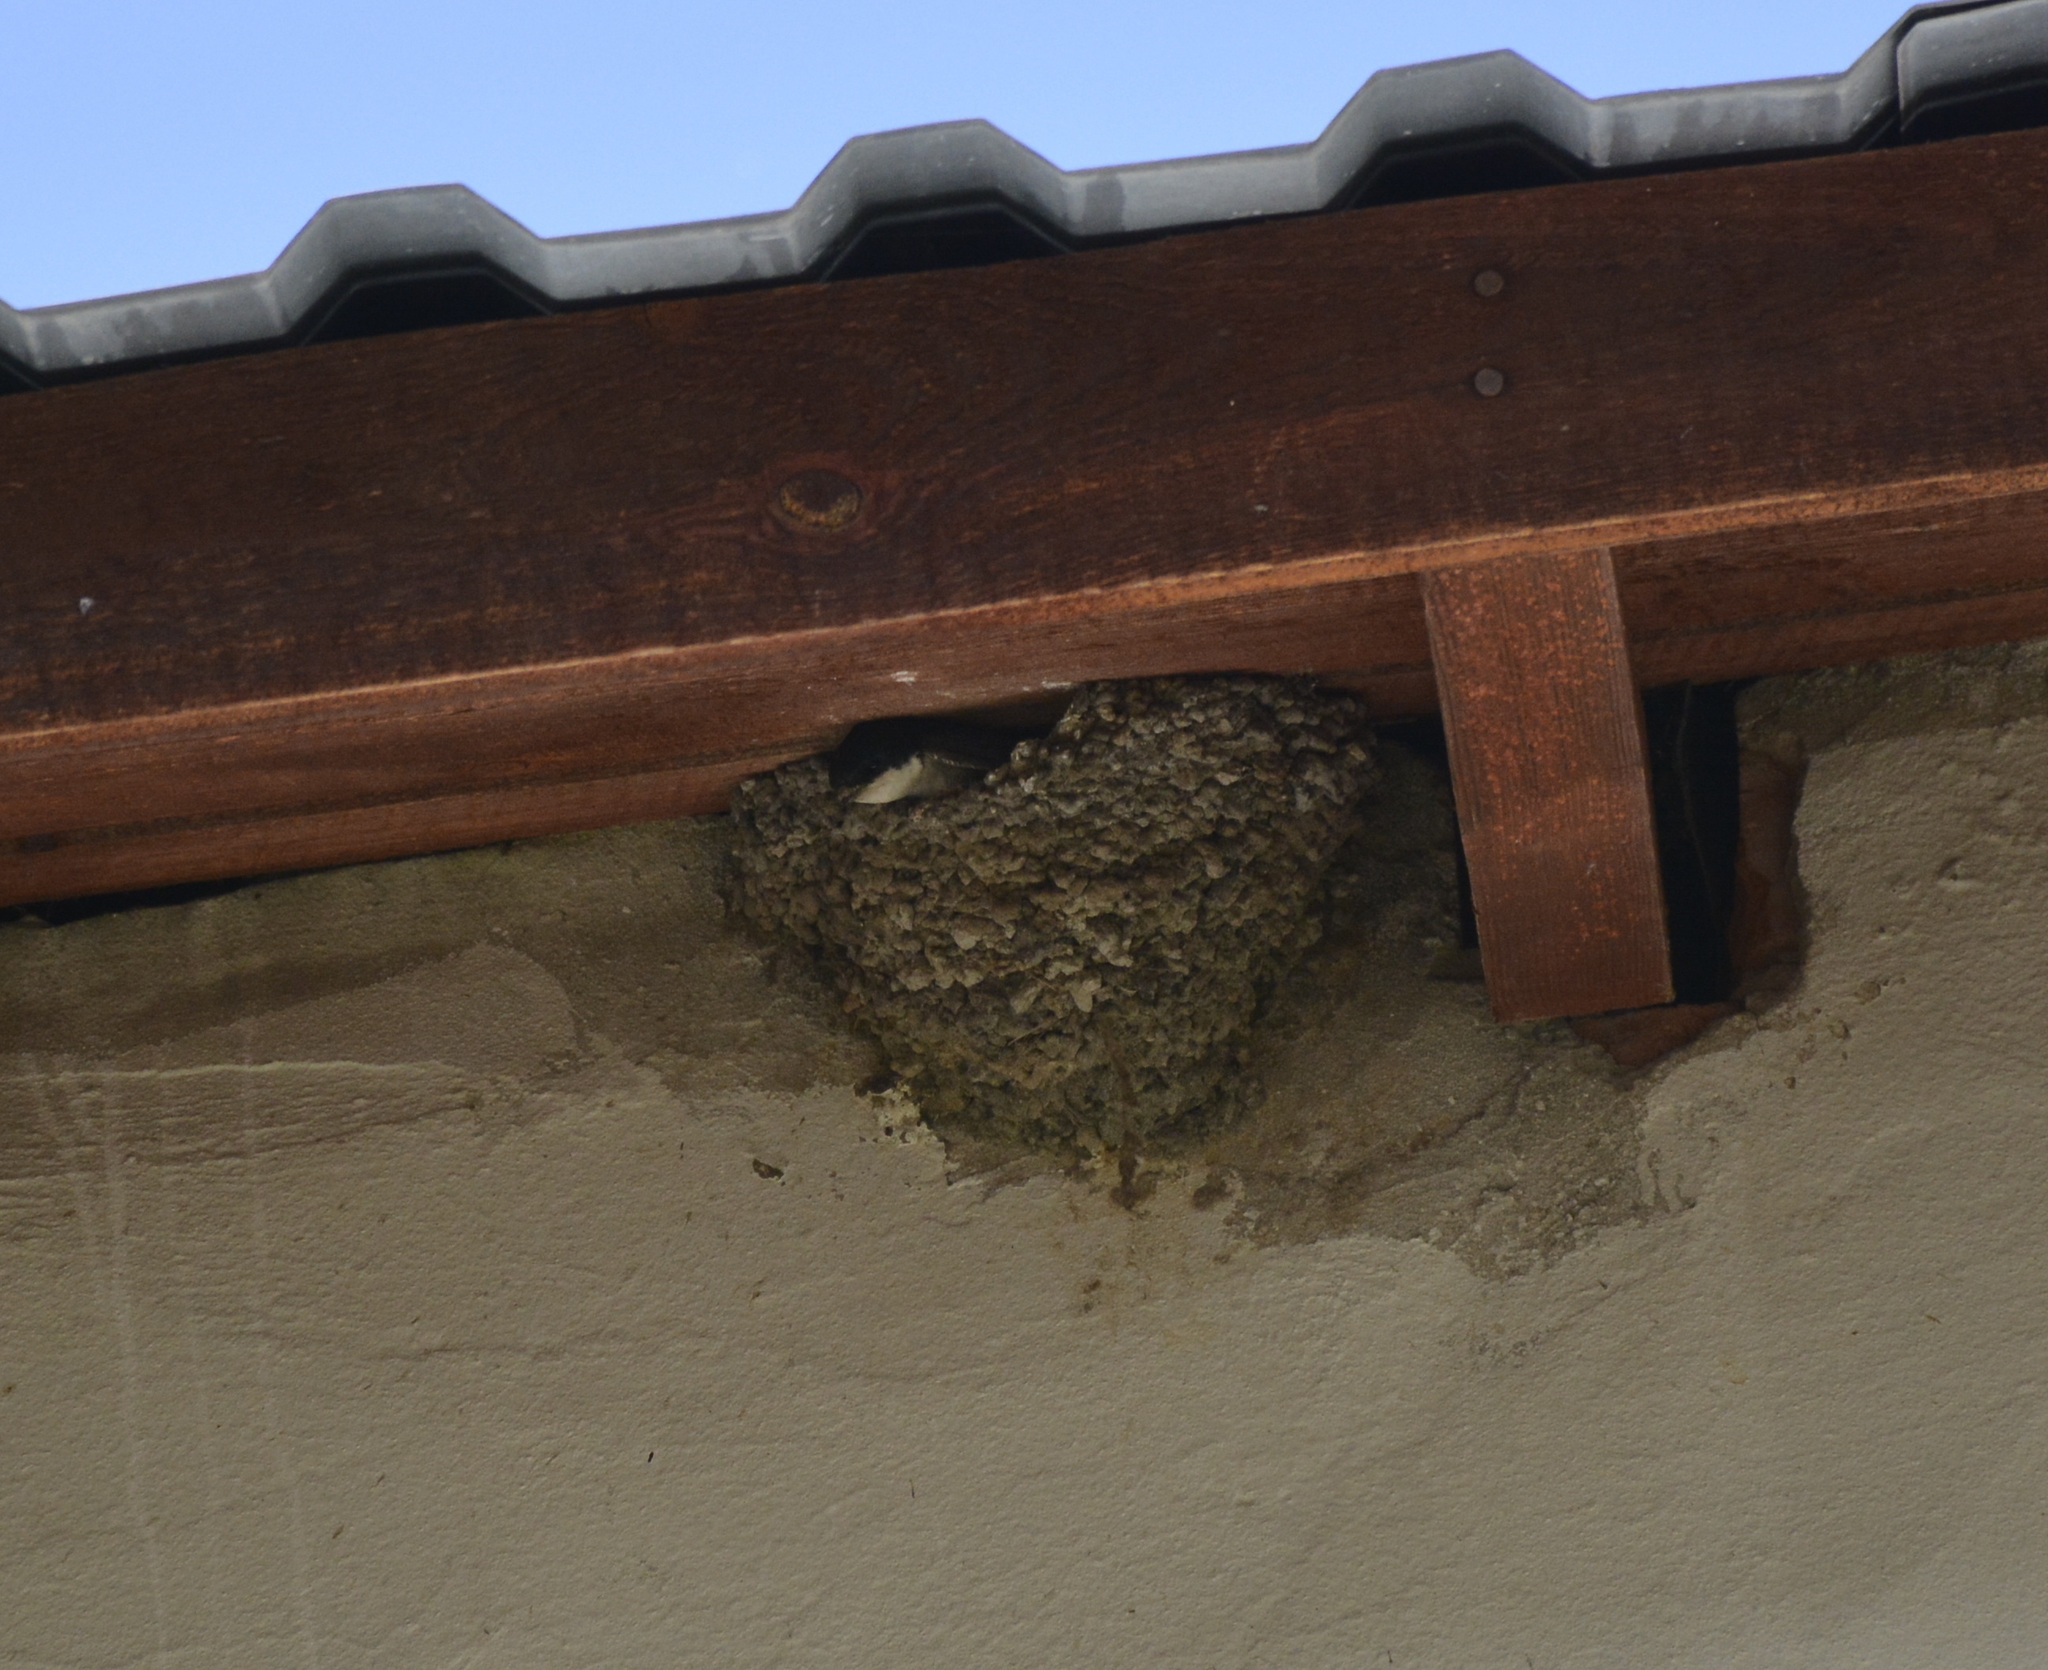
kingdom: Animalia
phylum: Chordata
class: Aves
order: Passeriformes
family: Hirundinidae
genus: Delichon
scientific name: Delichon urbicum
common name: Common house martin
